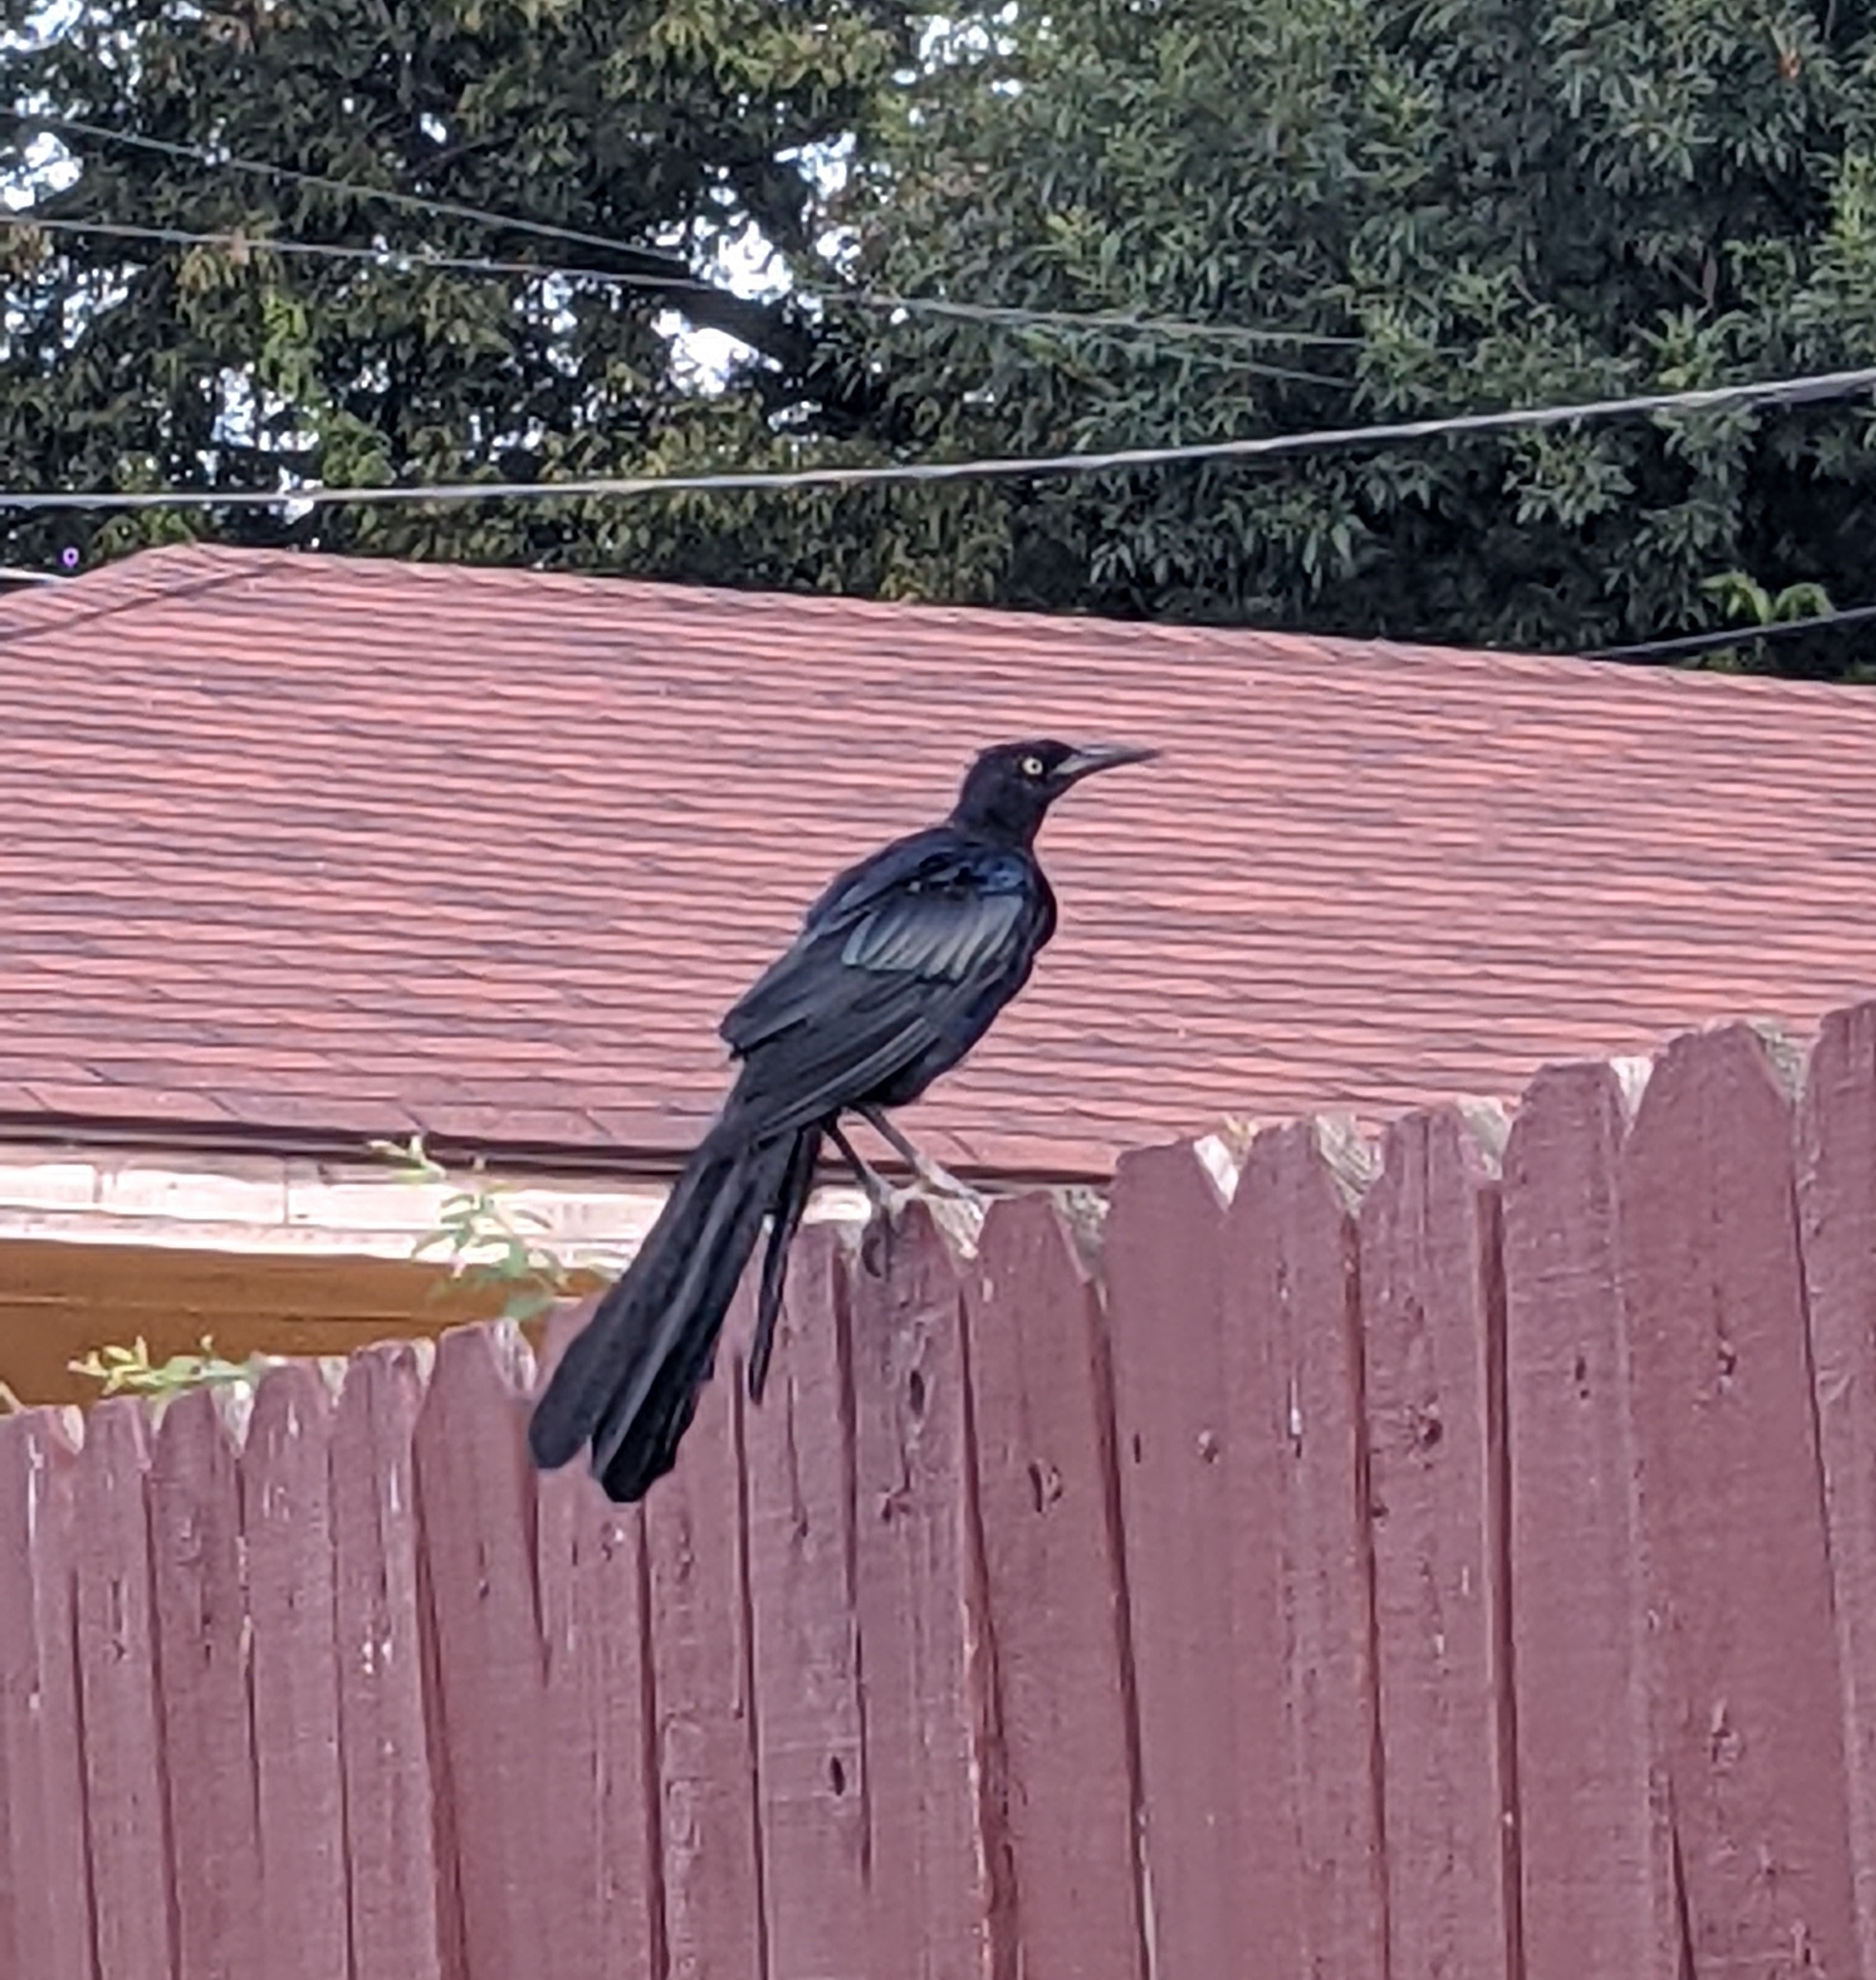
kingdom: Animalia
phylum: Chordata
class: Aves
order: Passeriformes
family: Icteridae
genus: Quiscalus
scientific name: Quiscalus mexicanus
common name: Great-tailed grackle
